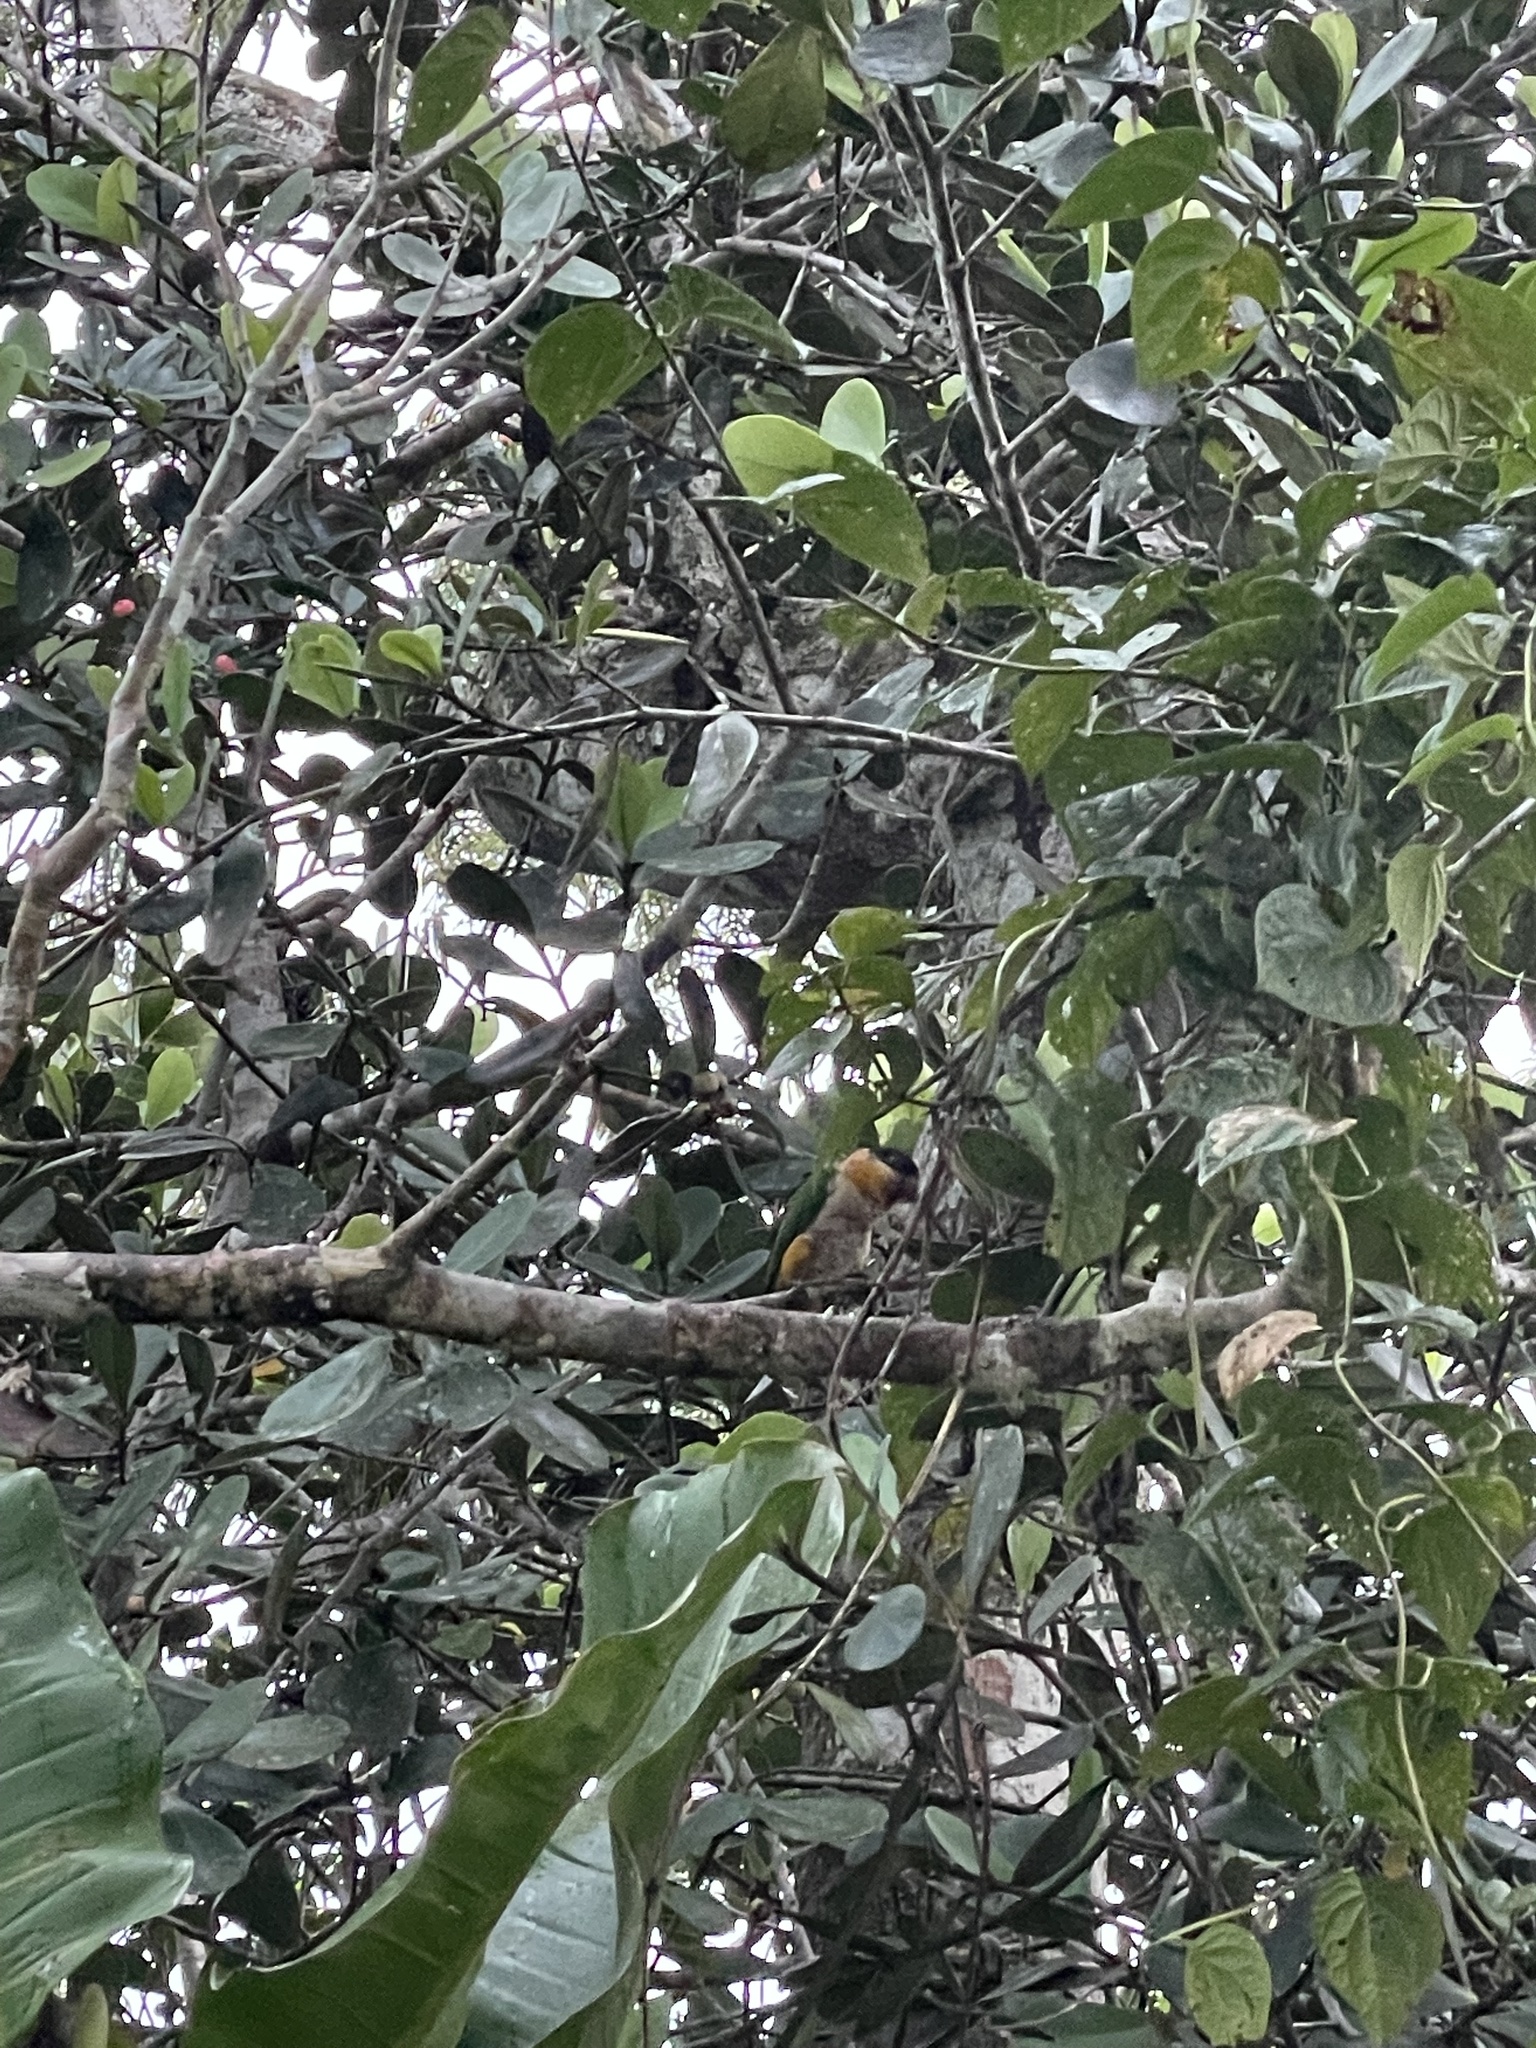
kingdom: Animalia
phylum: Chordata
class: Aves
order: Psittaciformes
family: Psittacidae
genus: Pionites
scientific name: Pionites melanocephalus
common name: Black-headed parrot
